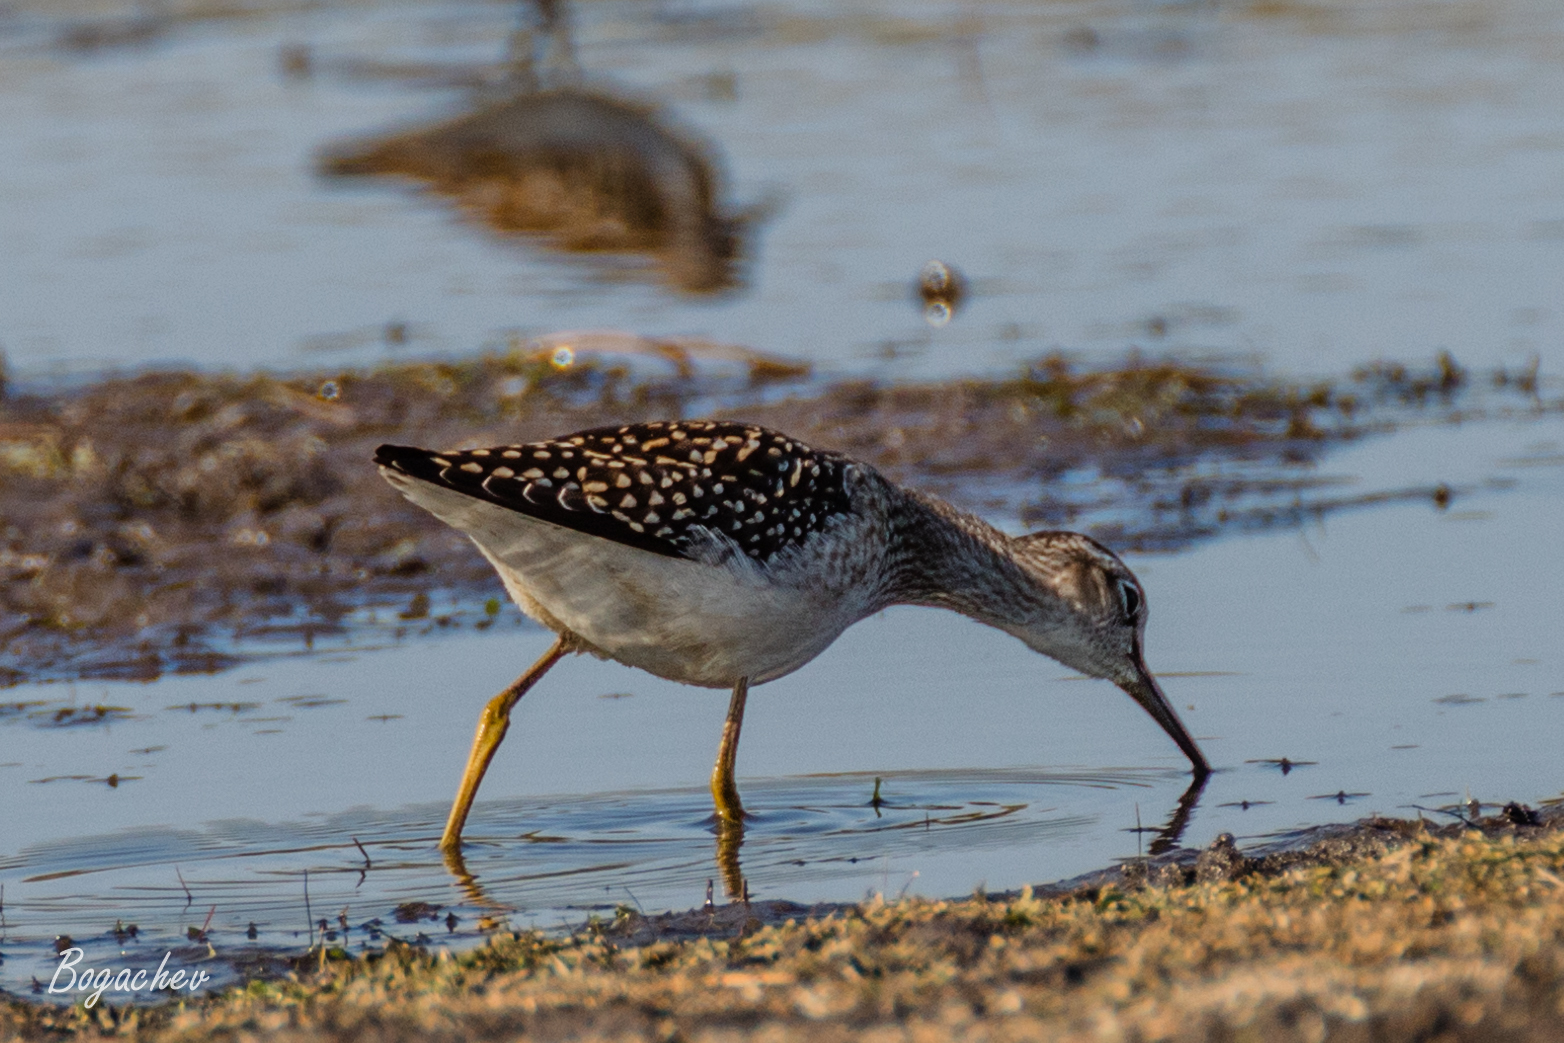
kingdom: Animalia
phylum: Chordata
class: Aves
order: Charadriiformes
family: Scolopacidae
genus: Tringa
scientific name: Tringa glareola
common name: Wood sandpiper
